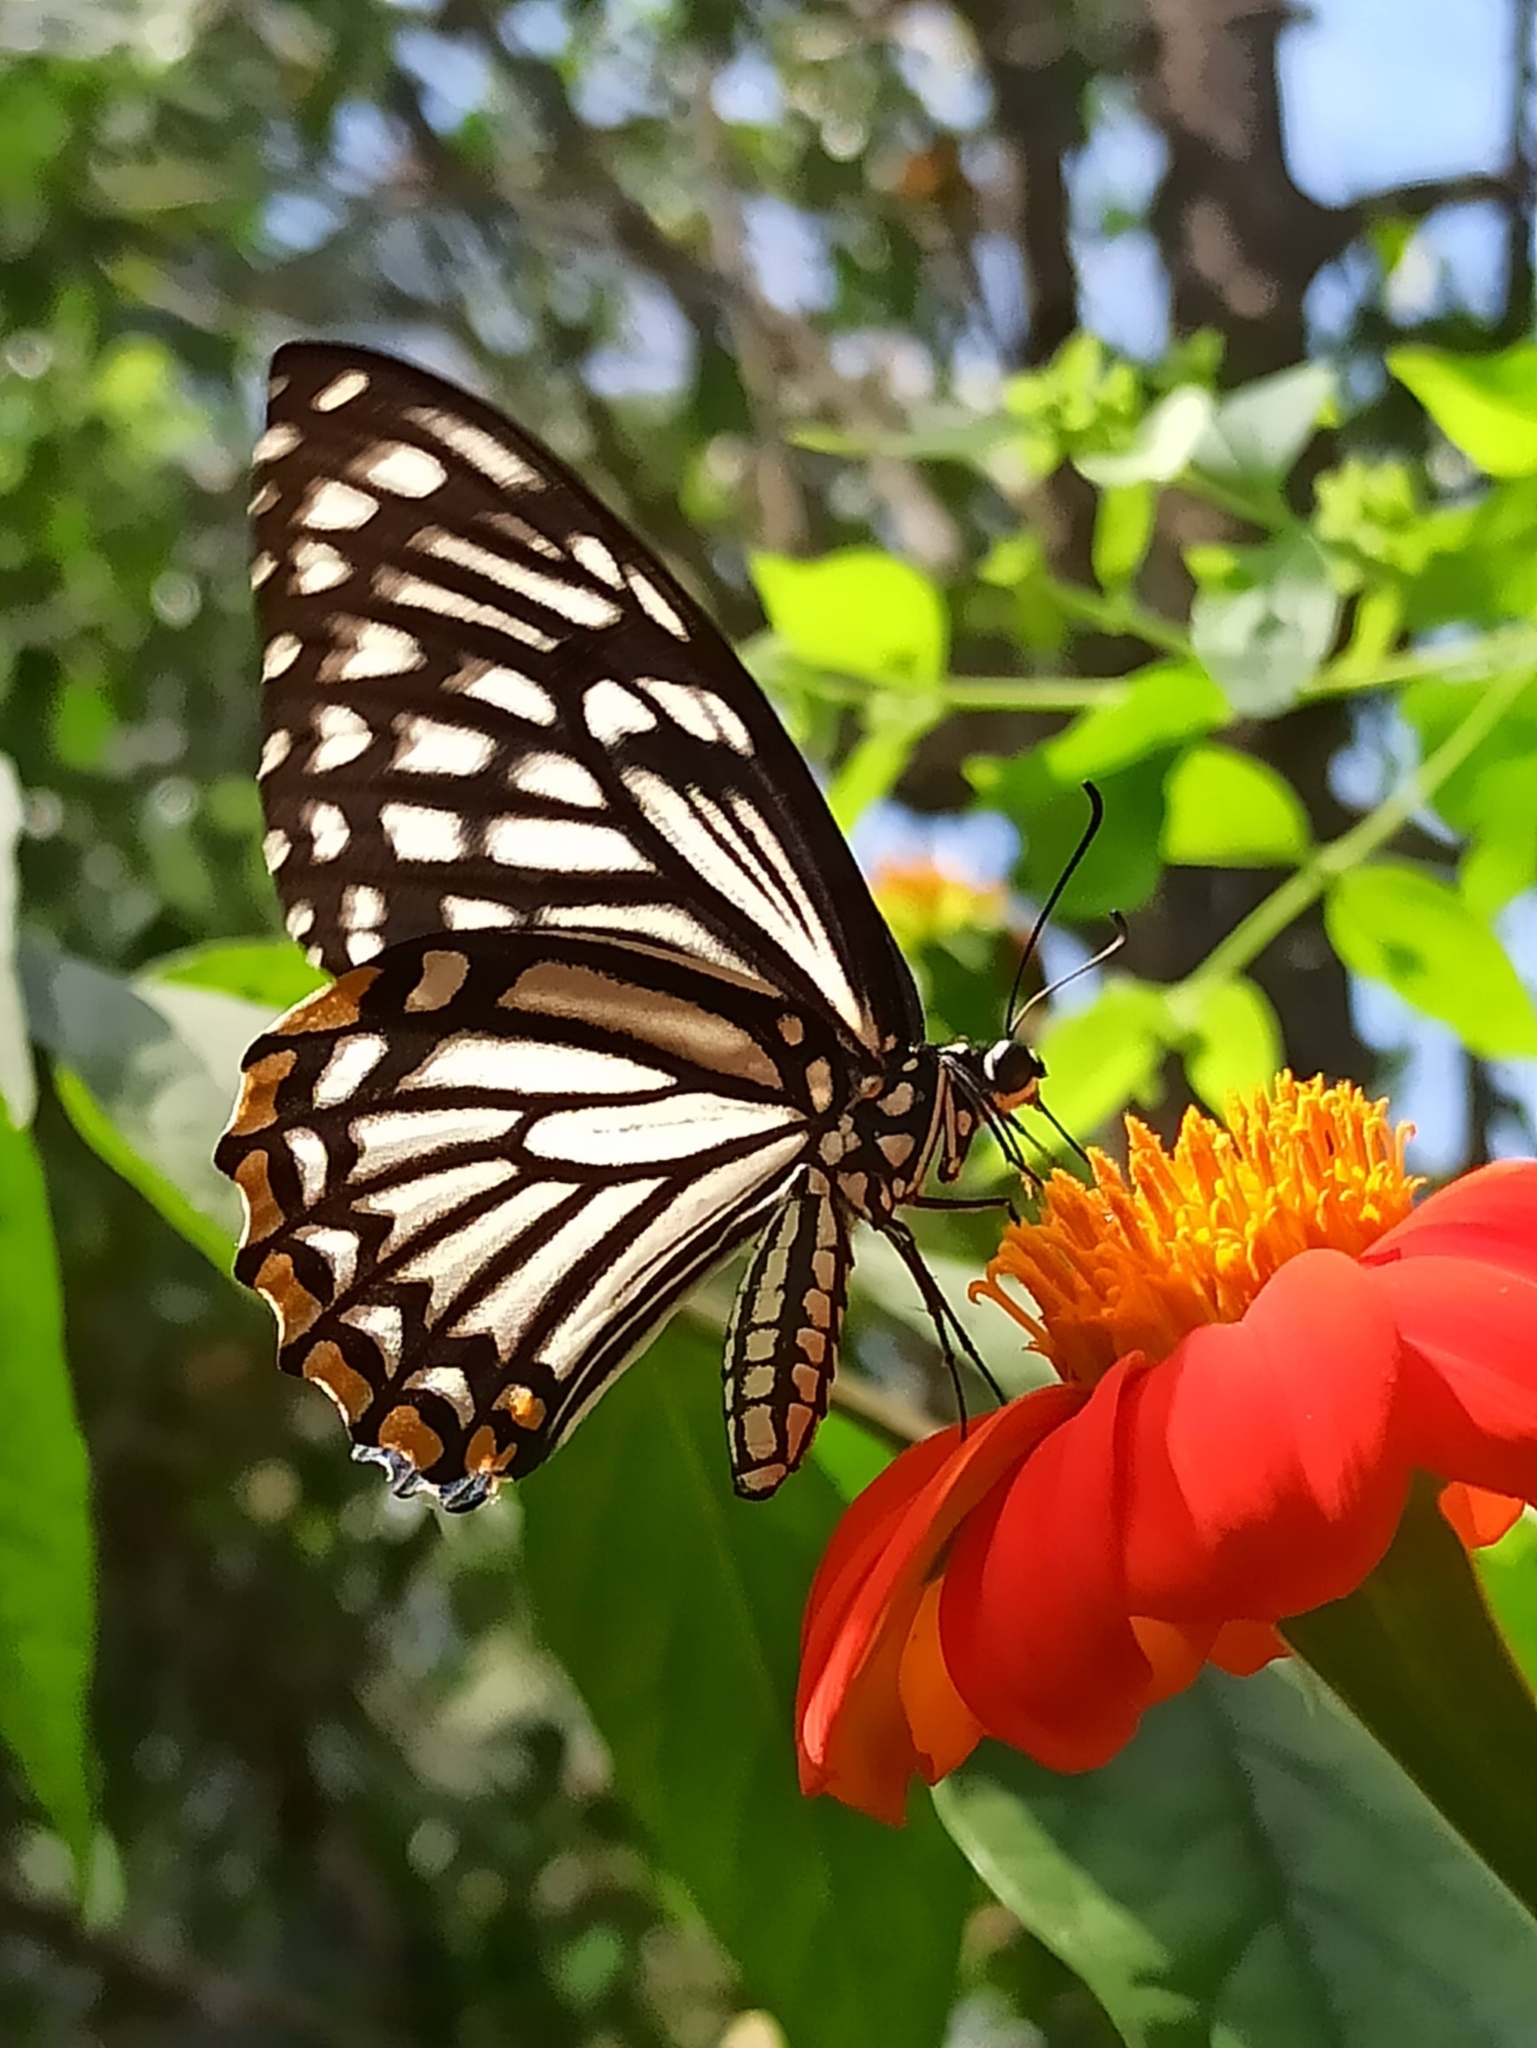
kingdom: Animalia
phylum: Arthropoda
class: Insecta
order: Lepidoptera
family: Papilionidae
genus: Chilasa
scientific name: Chilasa clytia
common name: Common mime
